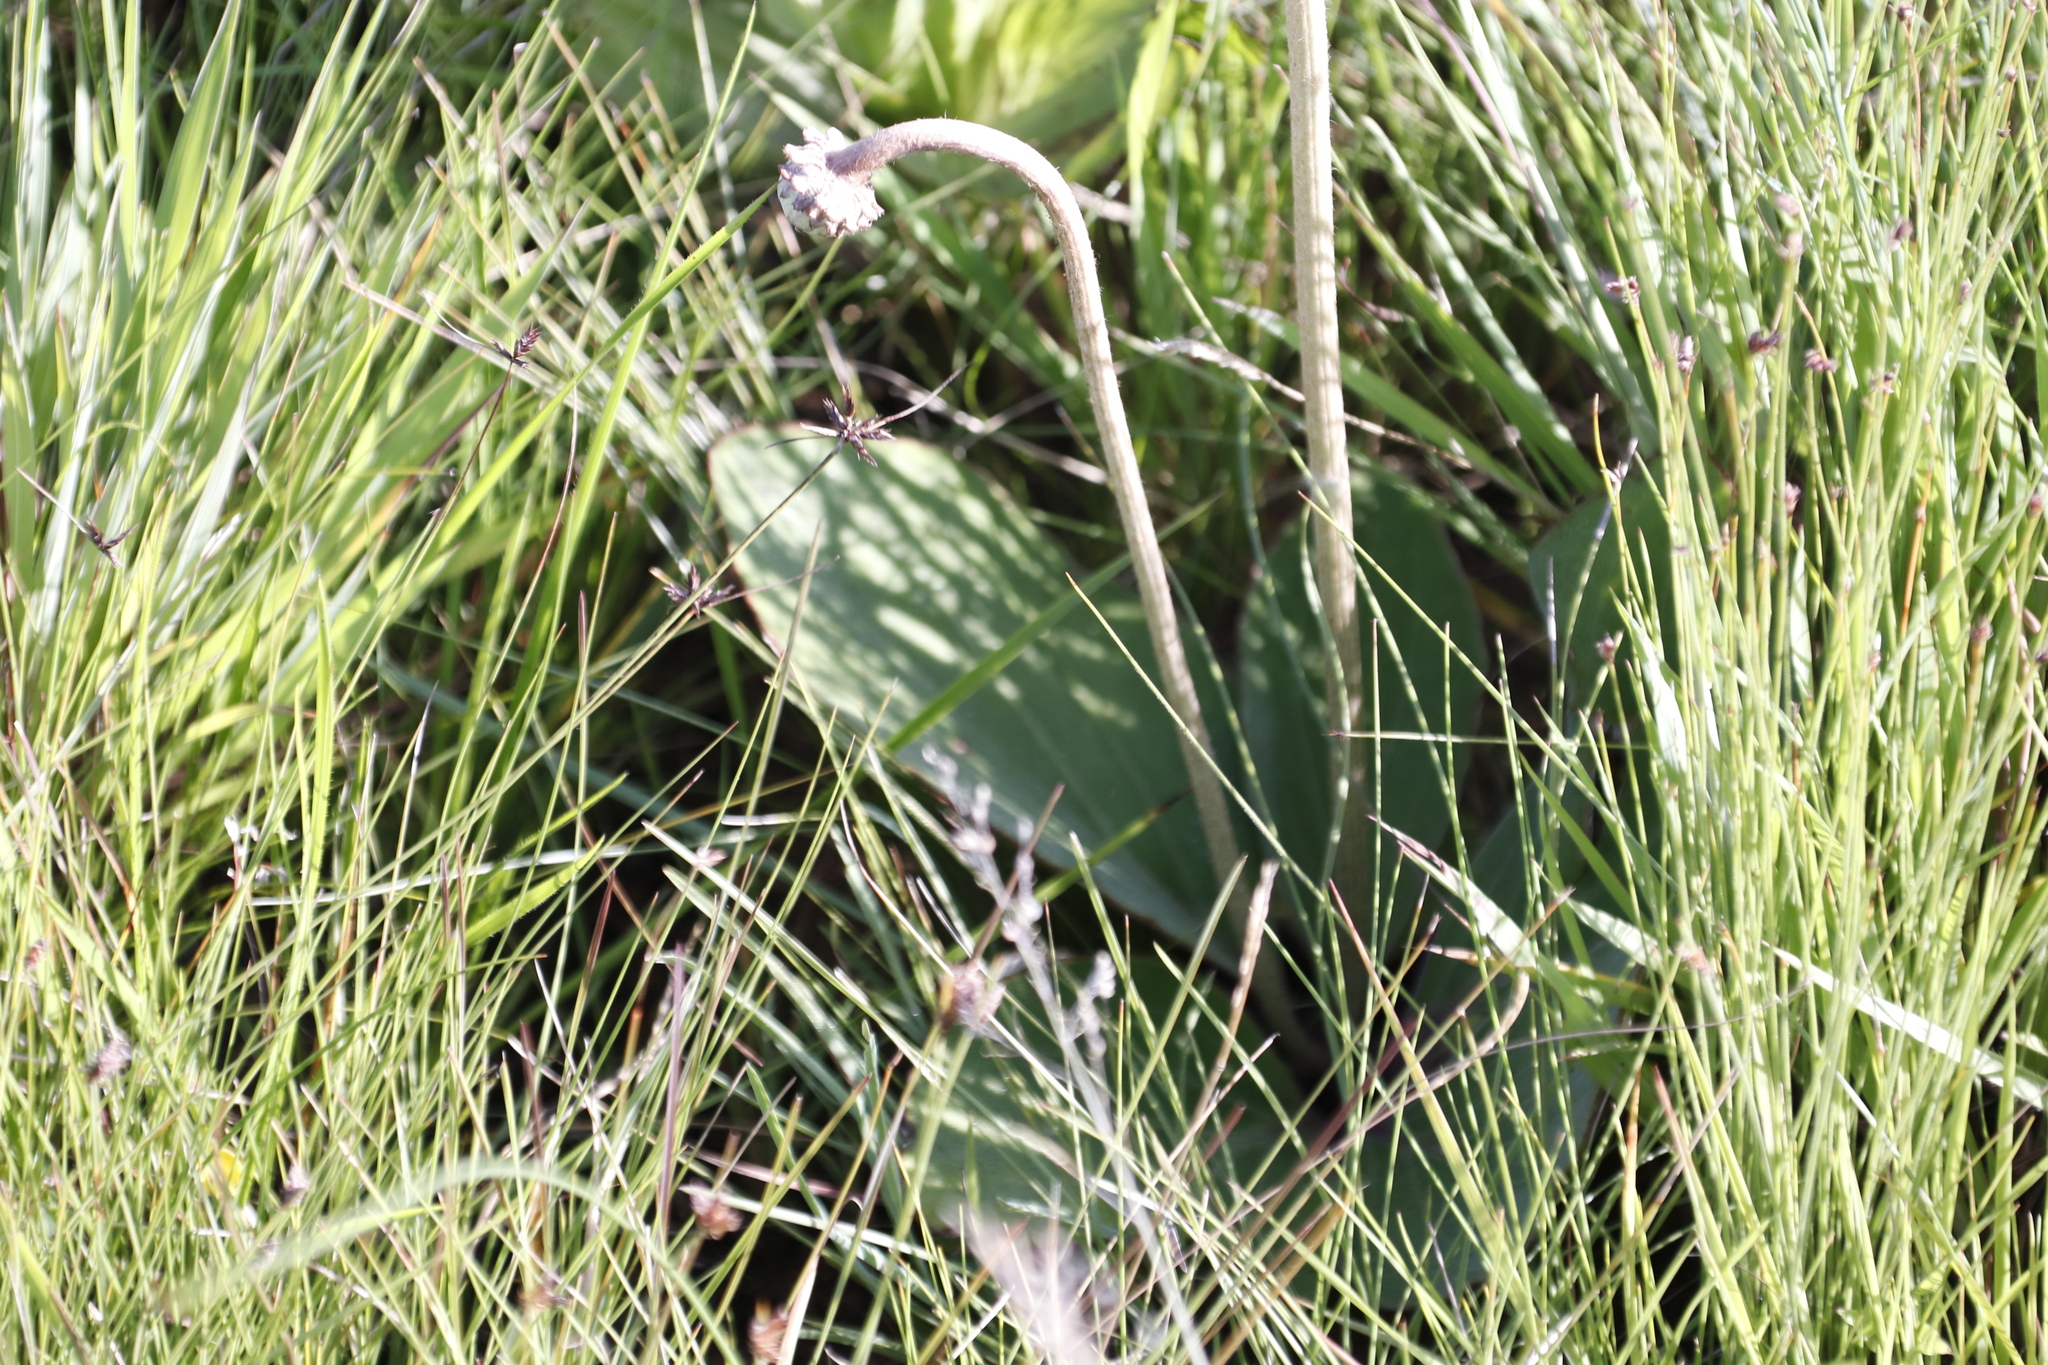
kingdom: Plantae
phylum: Tracheophyta
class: Magnoliopsida
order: Asterales
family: Asteraceae
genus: Haplocarpha
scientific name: Haplocarpha scaposa
